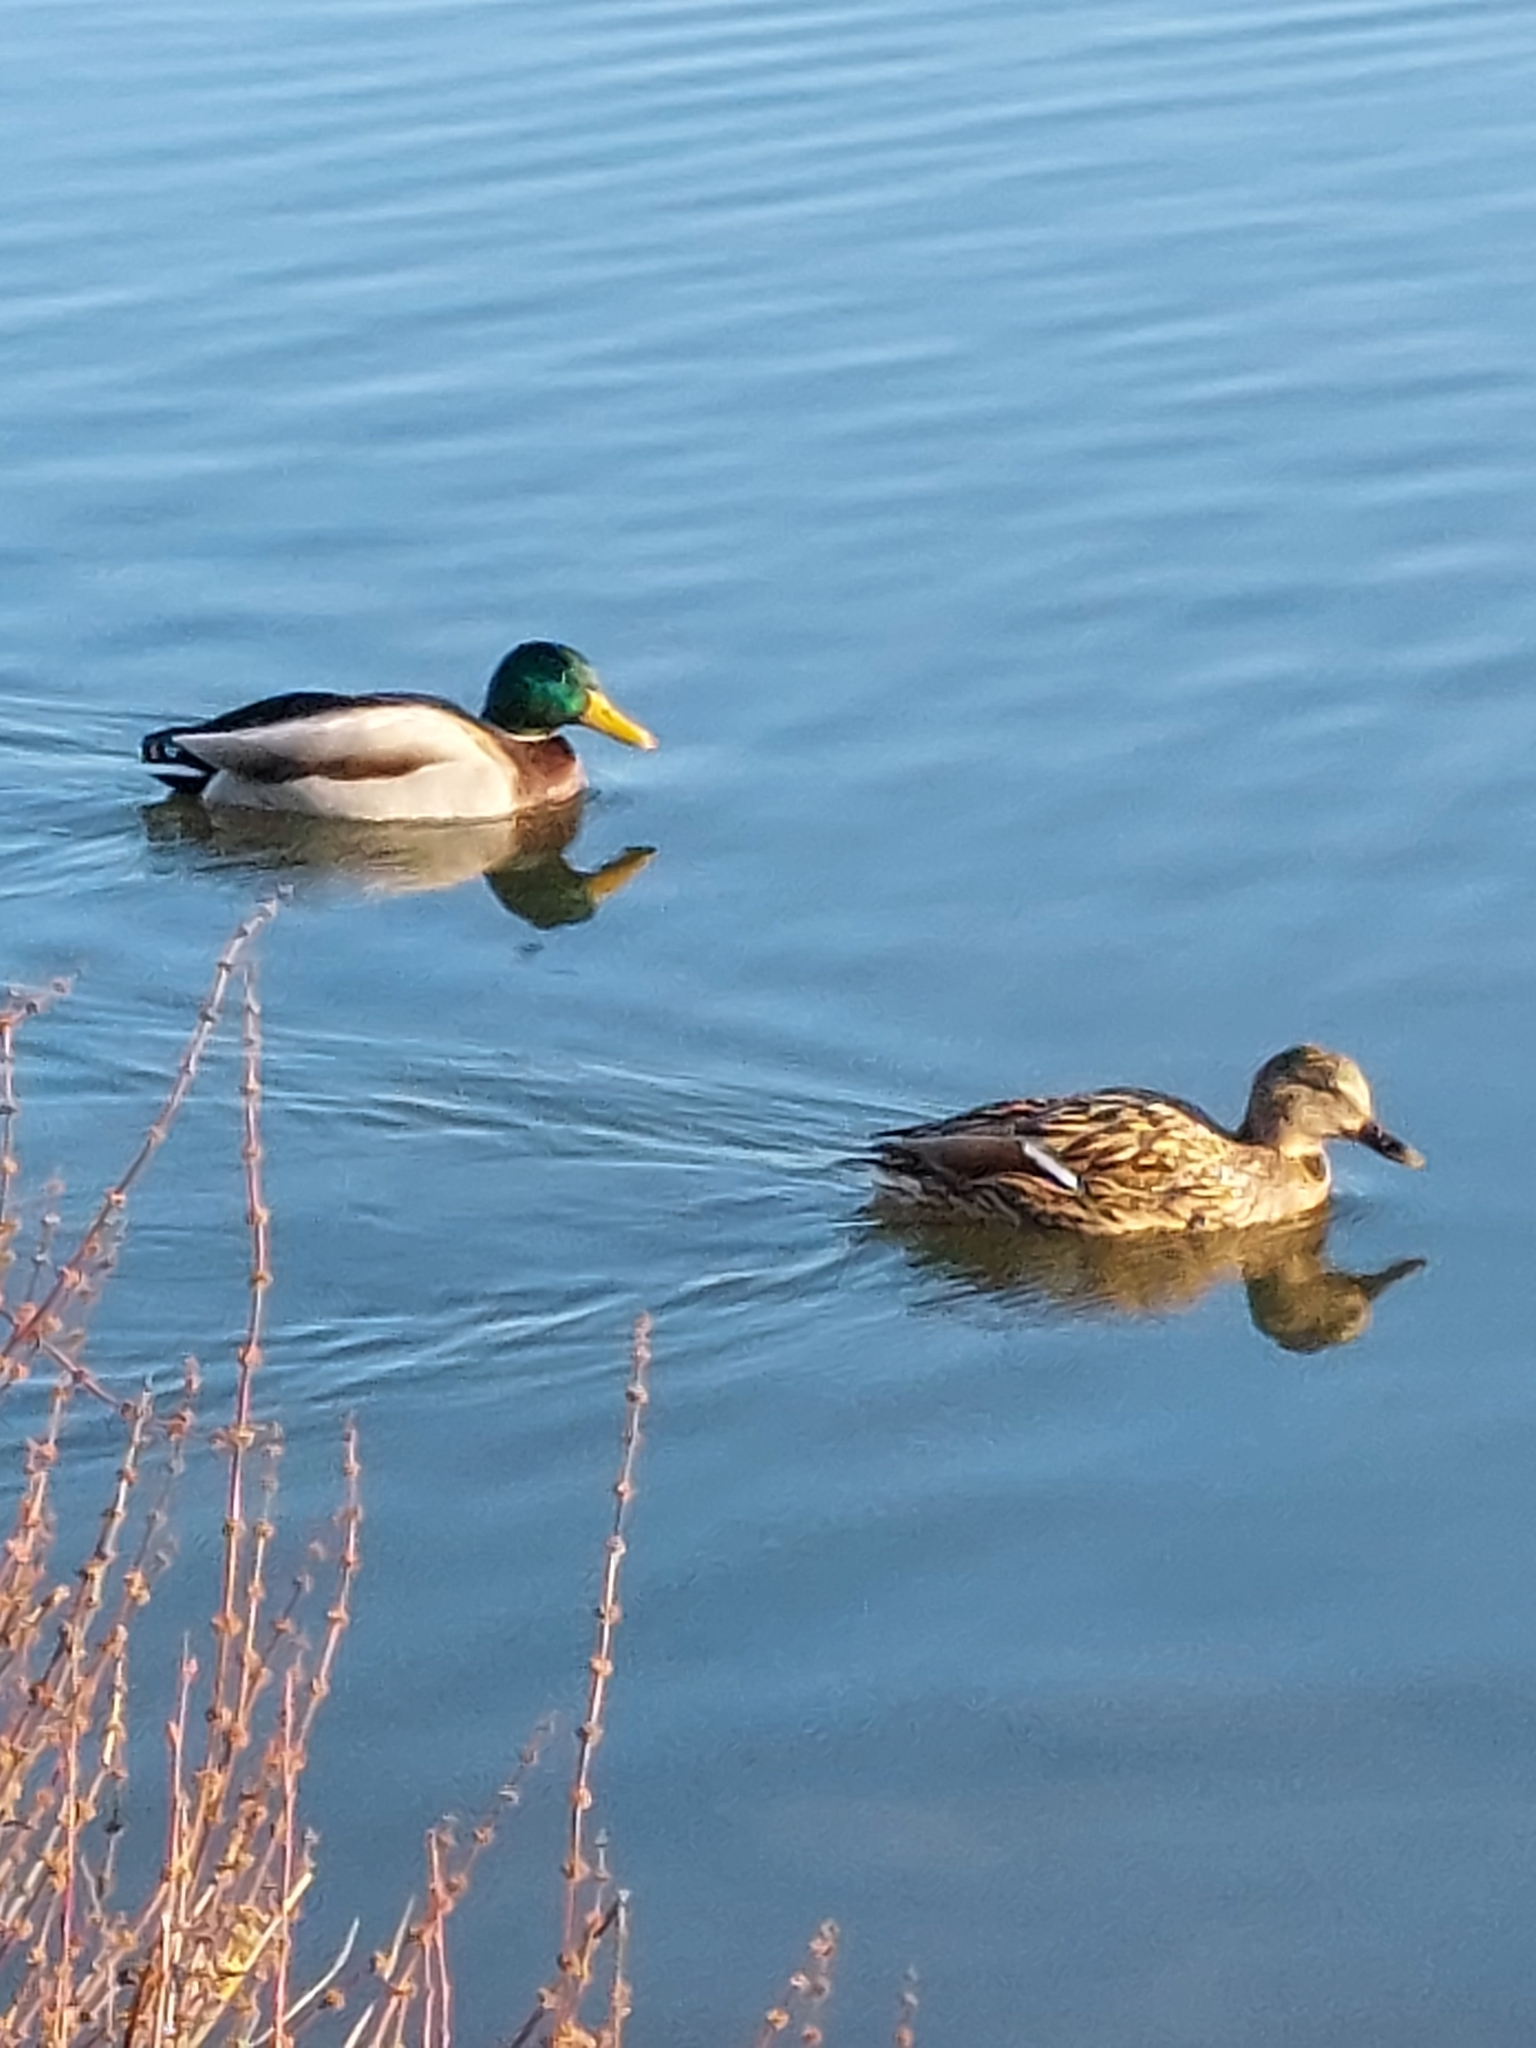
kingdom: Animalia
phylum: Chordata
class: Aves
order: Anseriformes
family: Anatidae
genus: Anas
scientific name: Anas platyrhynchos
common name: Mallard
